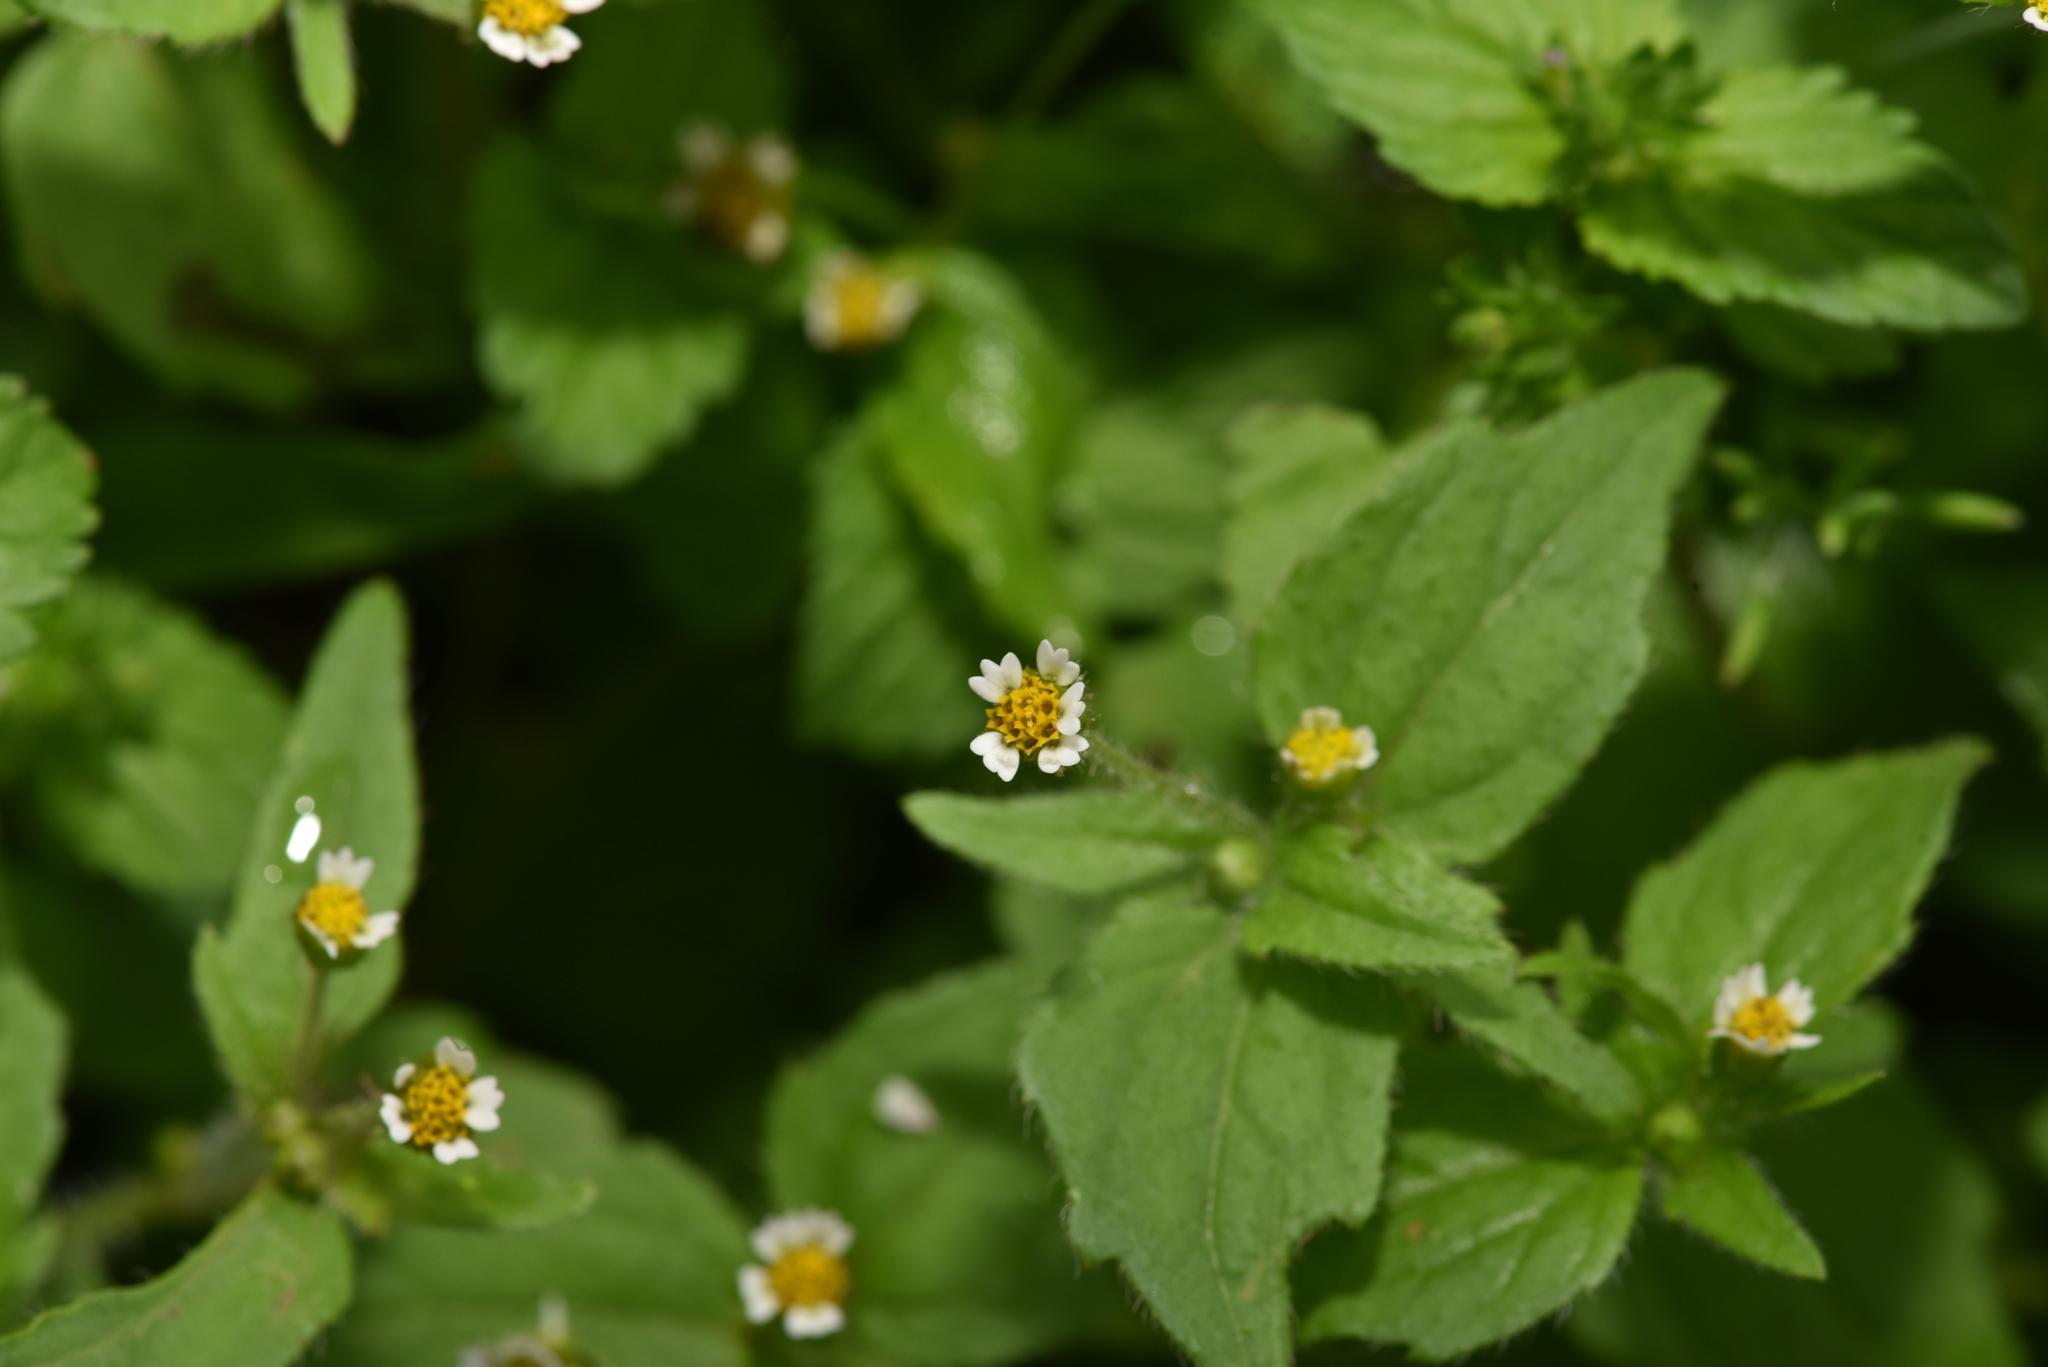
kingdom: Plantae
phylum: Tracheophyta
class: Magnoliopsida
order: Asterales
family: Asteraceae
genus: Galinsoga
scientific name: Galinsoga quadriradiata
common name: Shaggy soldier
